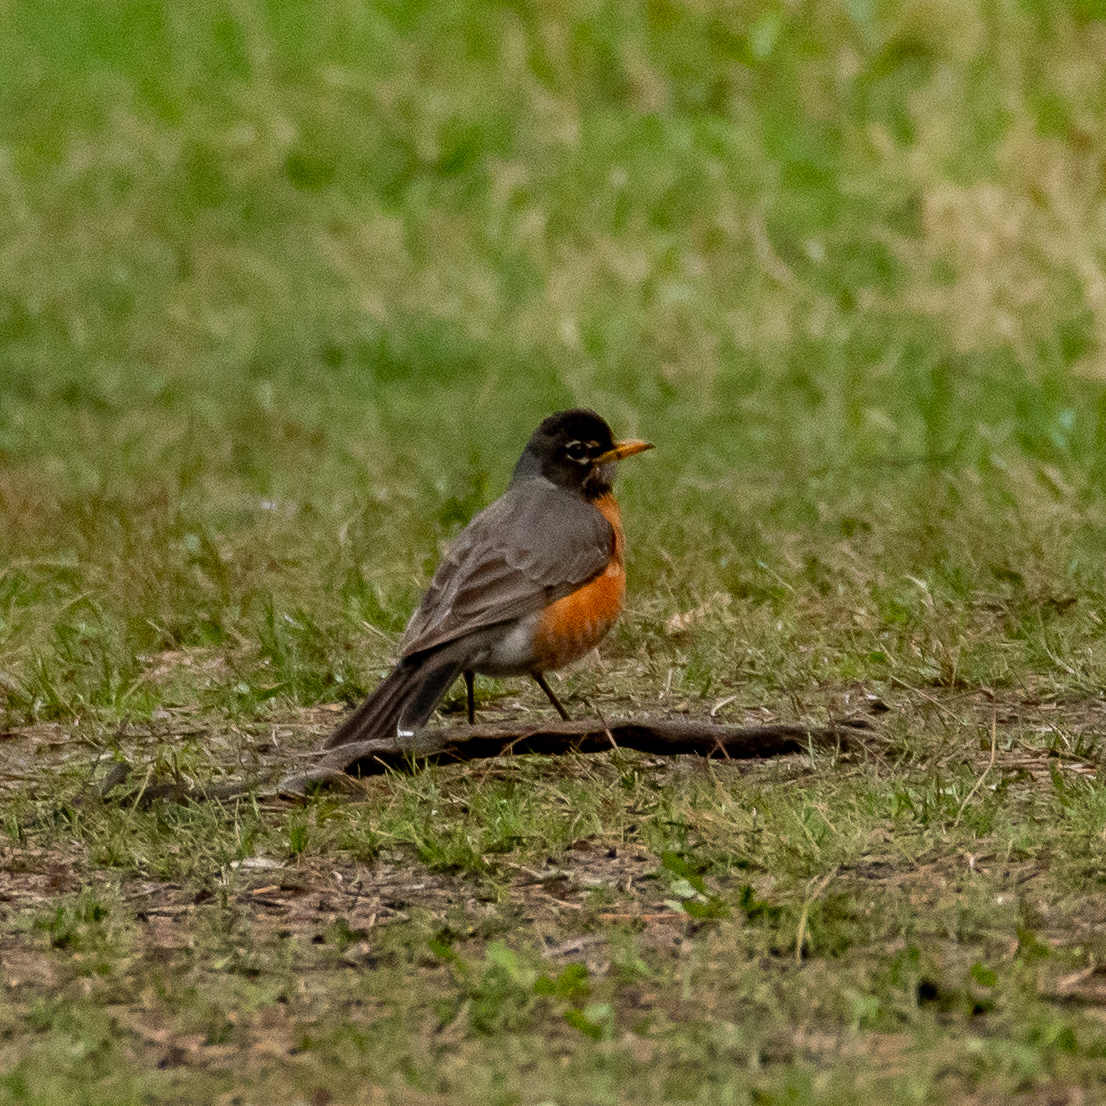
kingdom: Animalia
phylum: Chordata
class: Aves
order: Passeriformes
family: Turdidae
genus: Turdus
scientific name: Turdus migratorius
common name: American robin
